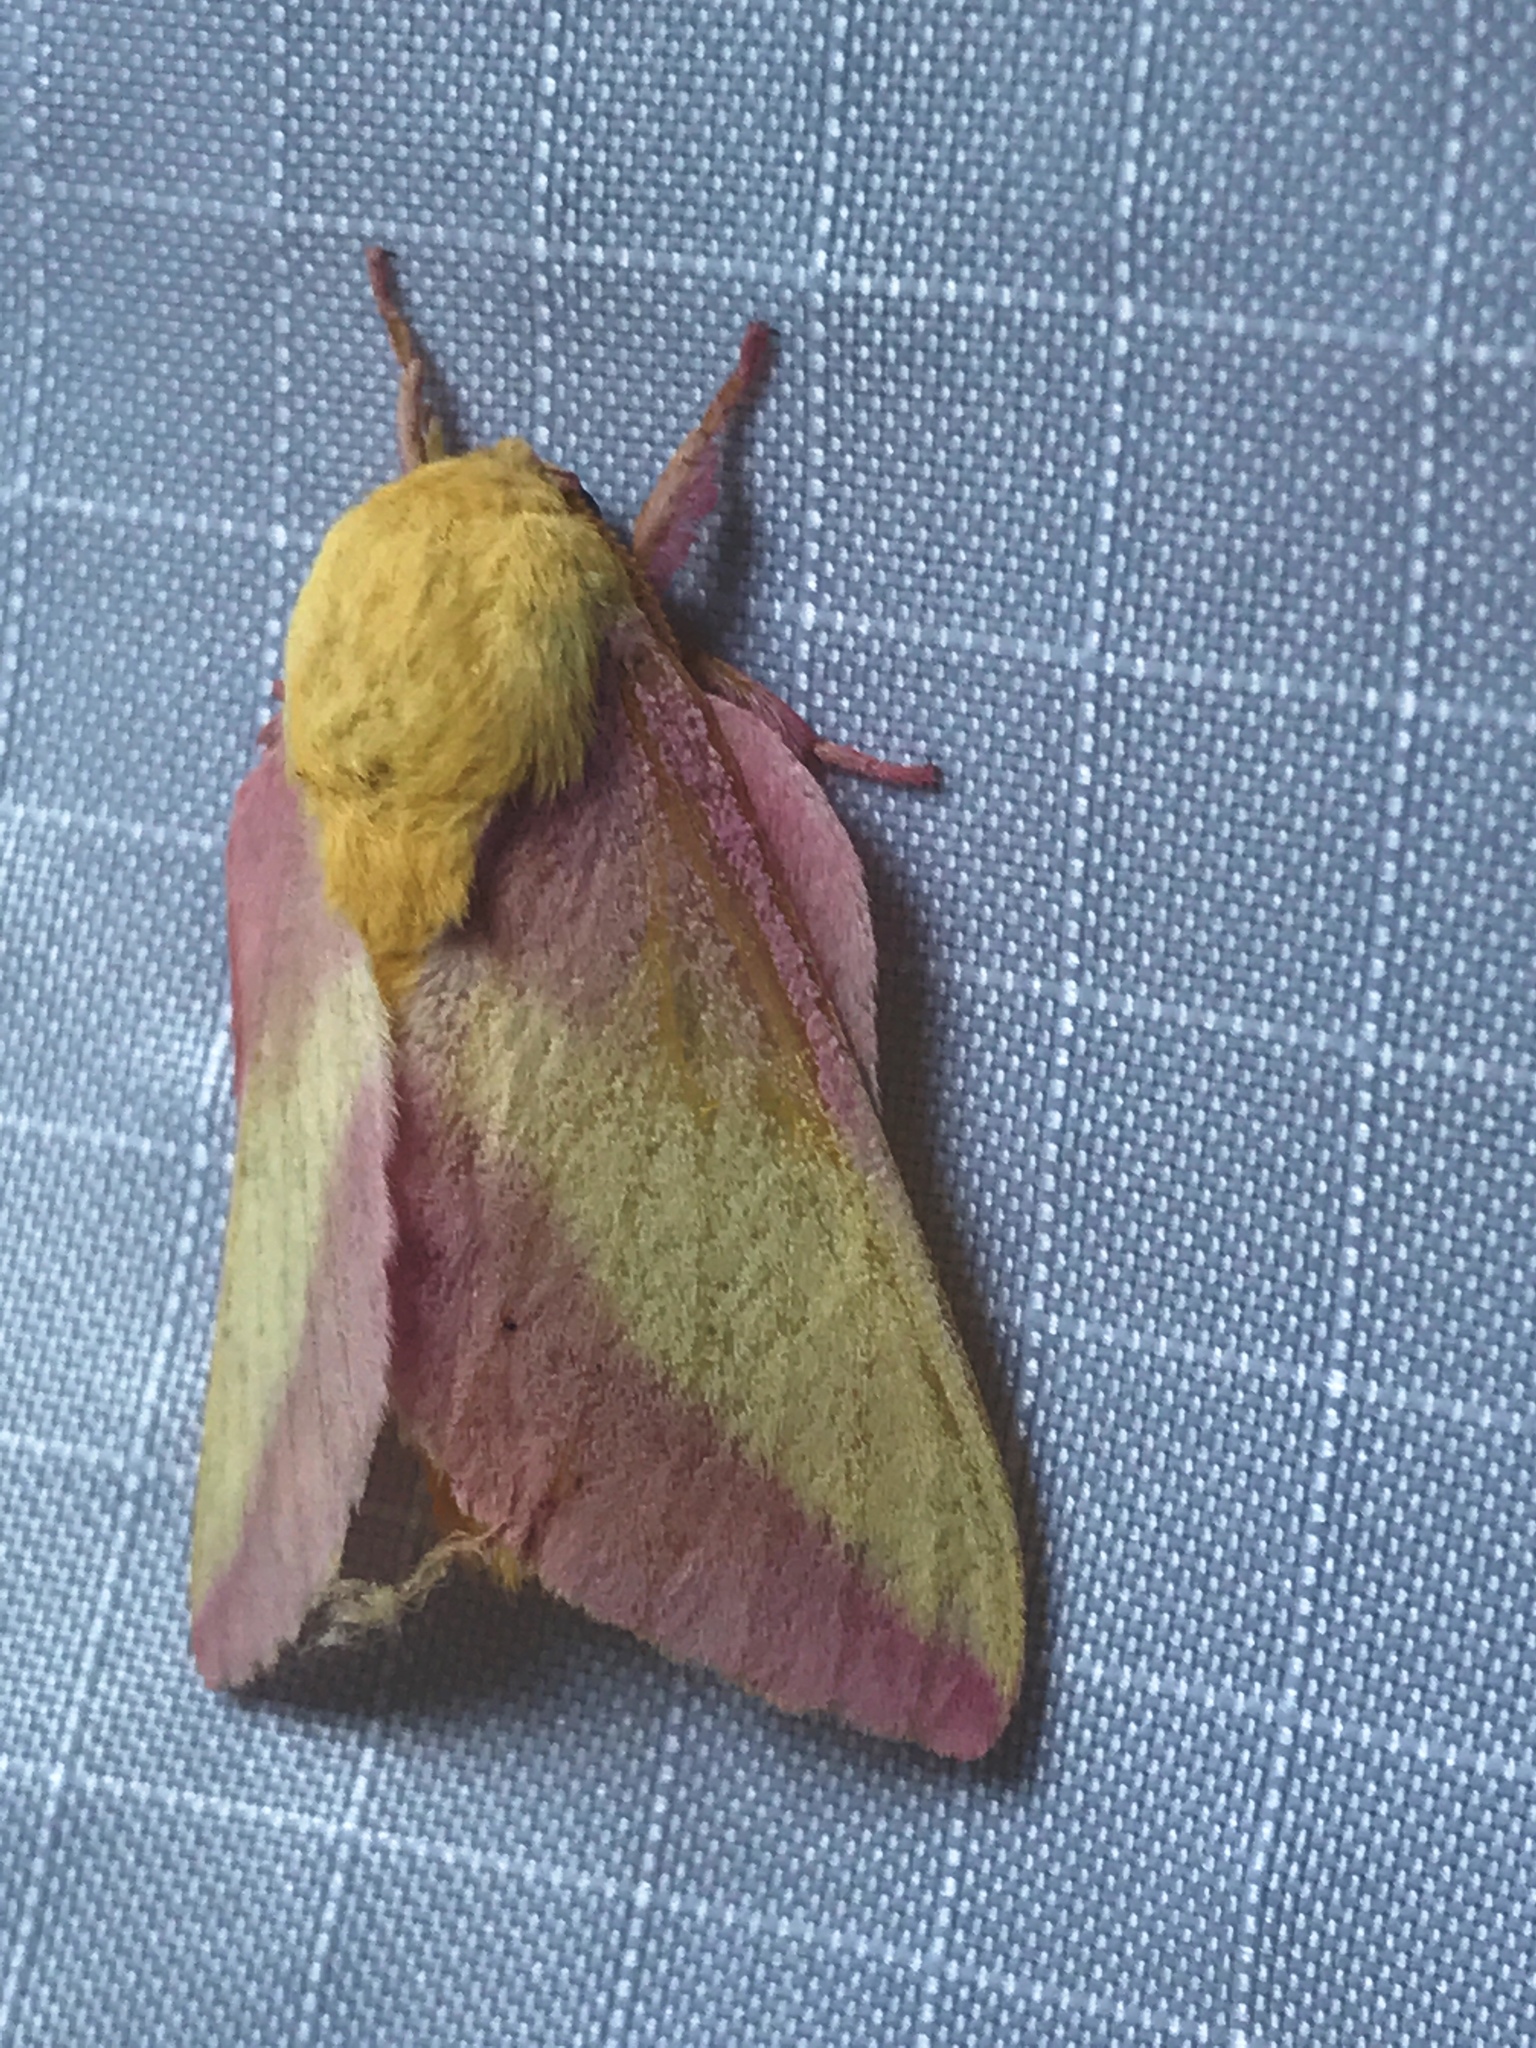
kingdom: Animalia
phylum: Arthropoda
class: Insecta
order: Lepidoptera
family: Saturniidae
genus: Dryocampa
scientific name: Dryocampa rubicunda
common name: Rosy maple moth
